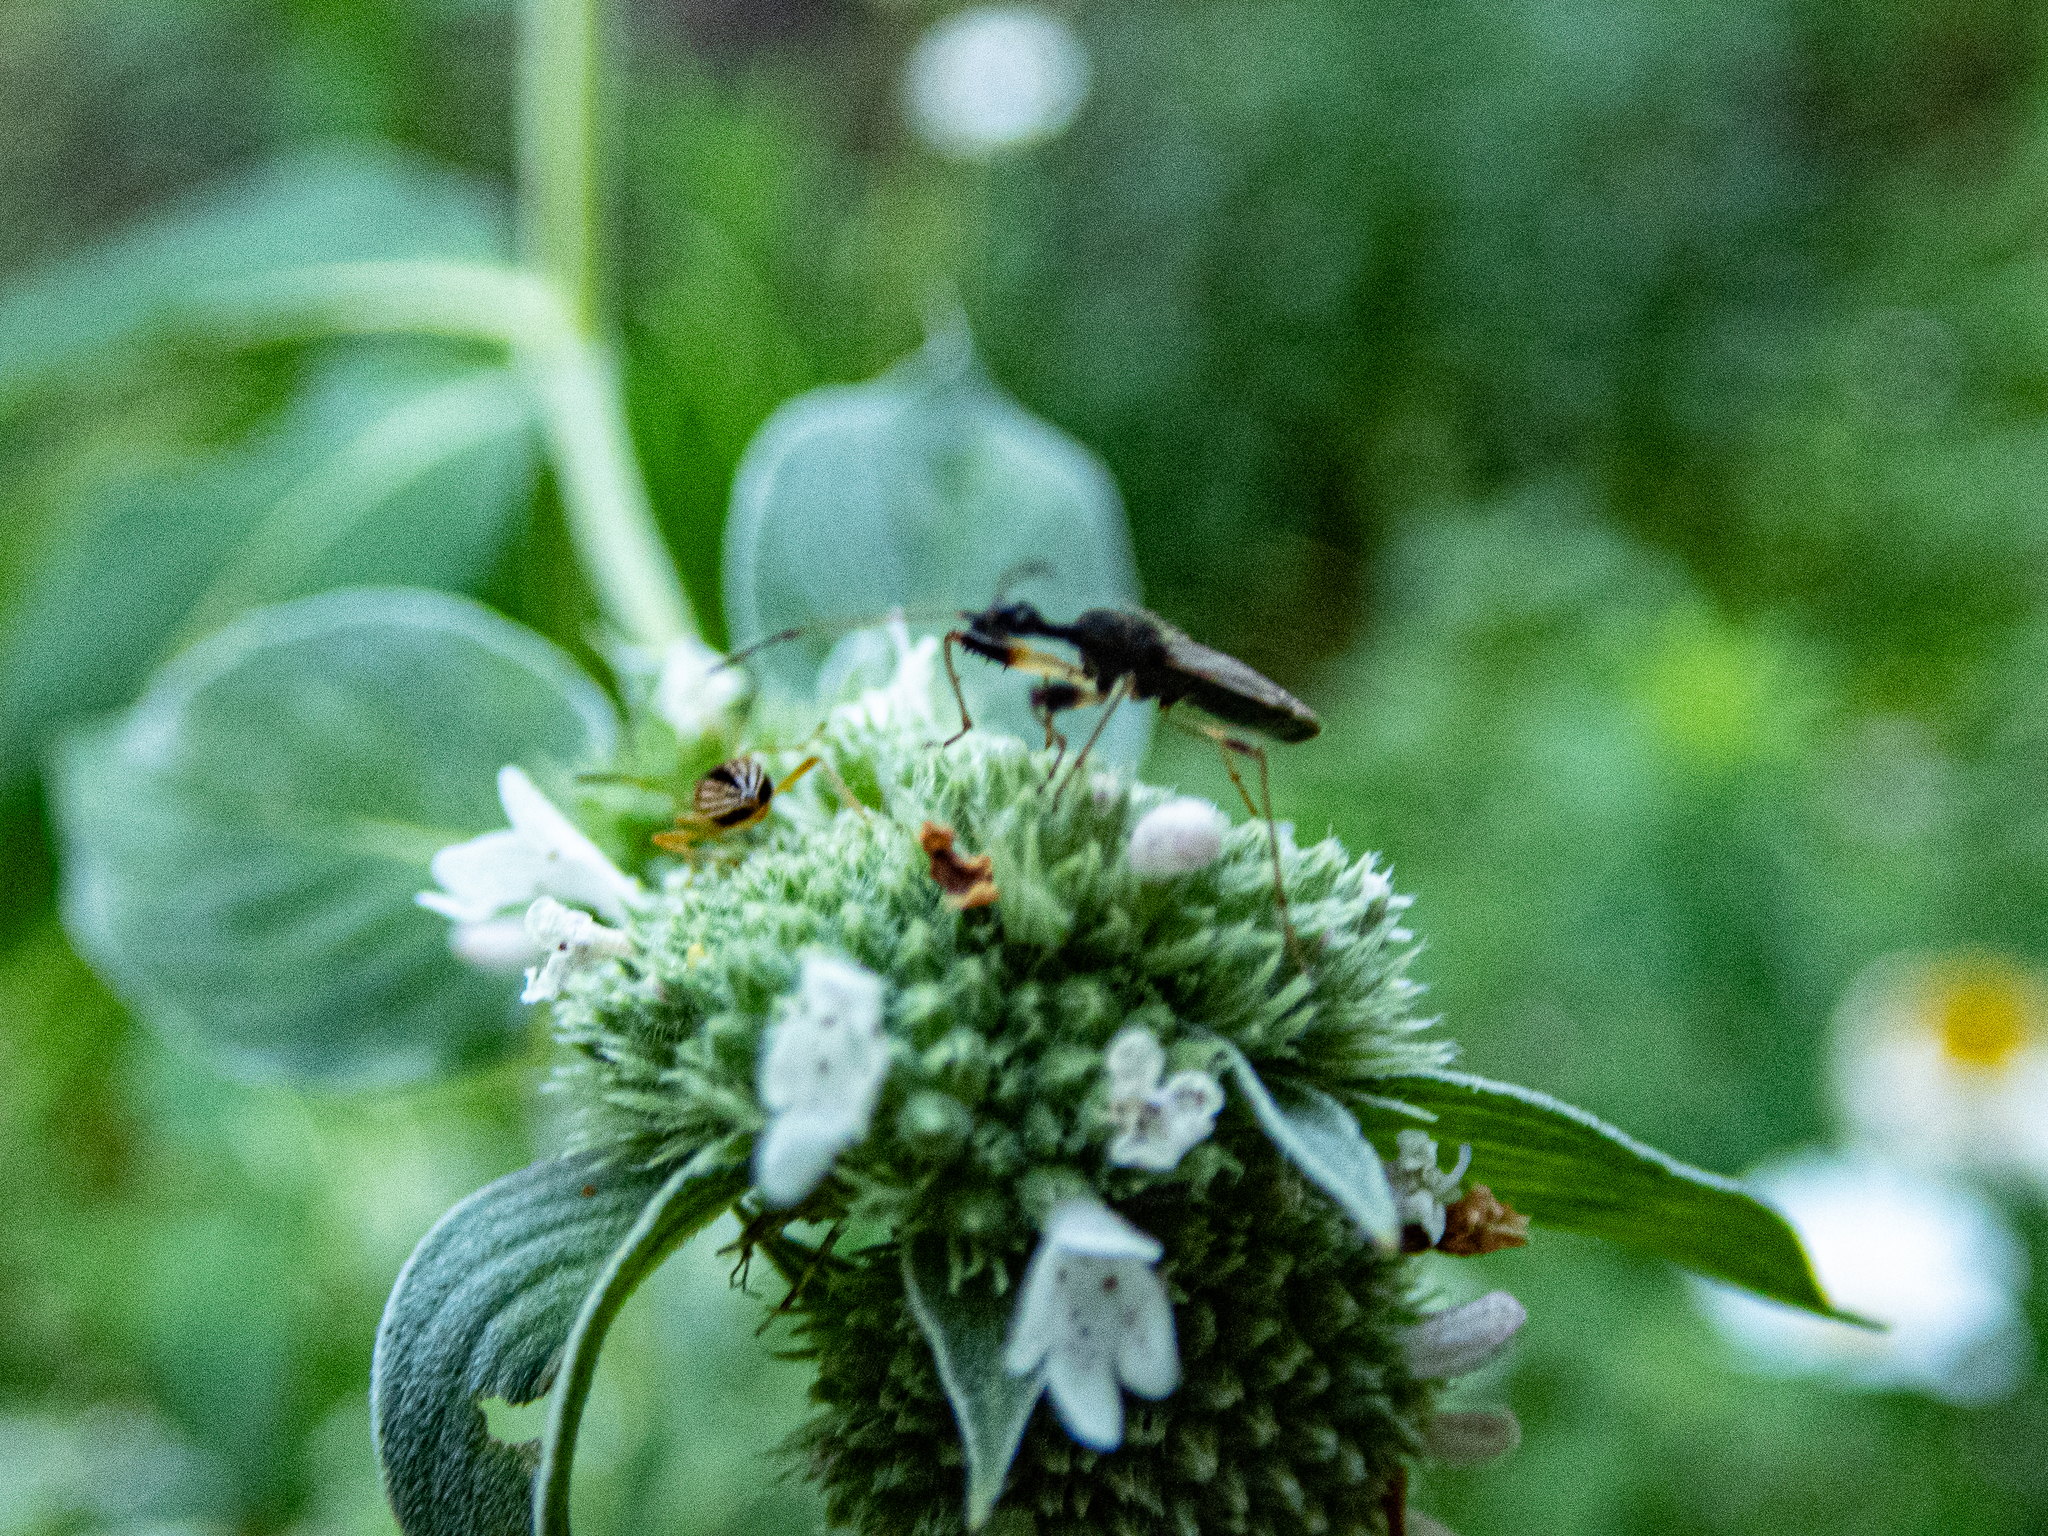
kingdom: Animalia
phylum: Arthropoda
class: Insecta
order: Hemiptera
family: Rhyparochromidae
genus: Myodocha
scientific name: Myodocha serripes
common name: Long-necked seed bug
